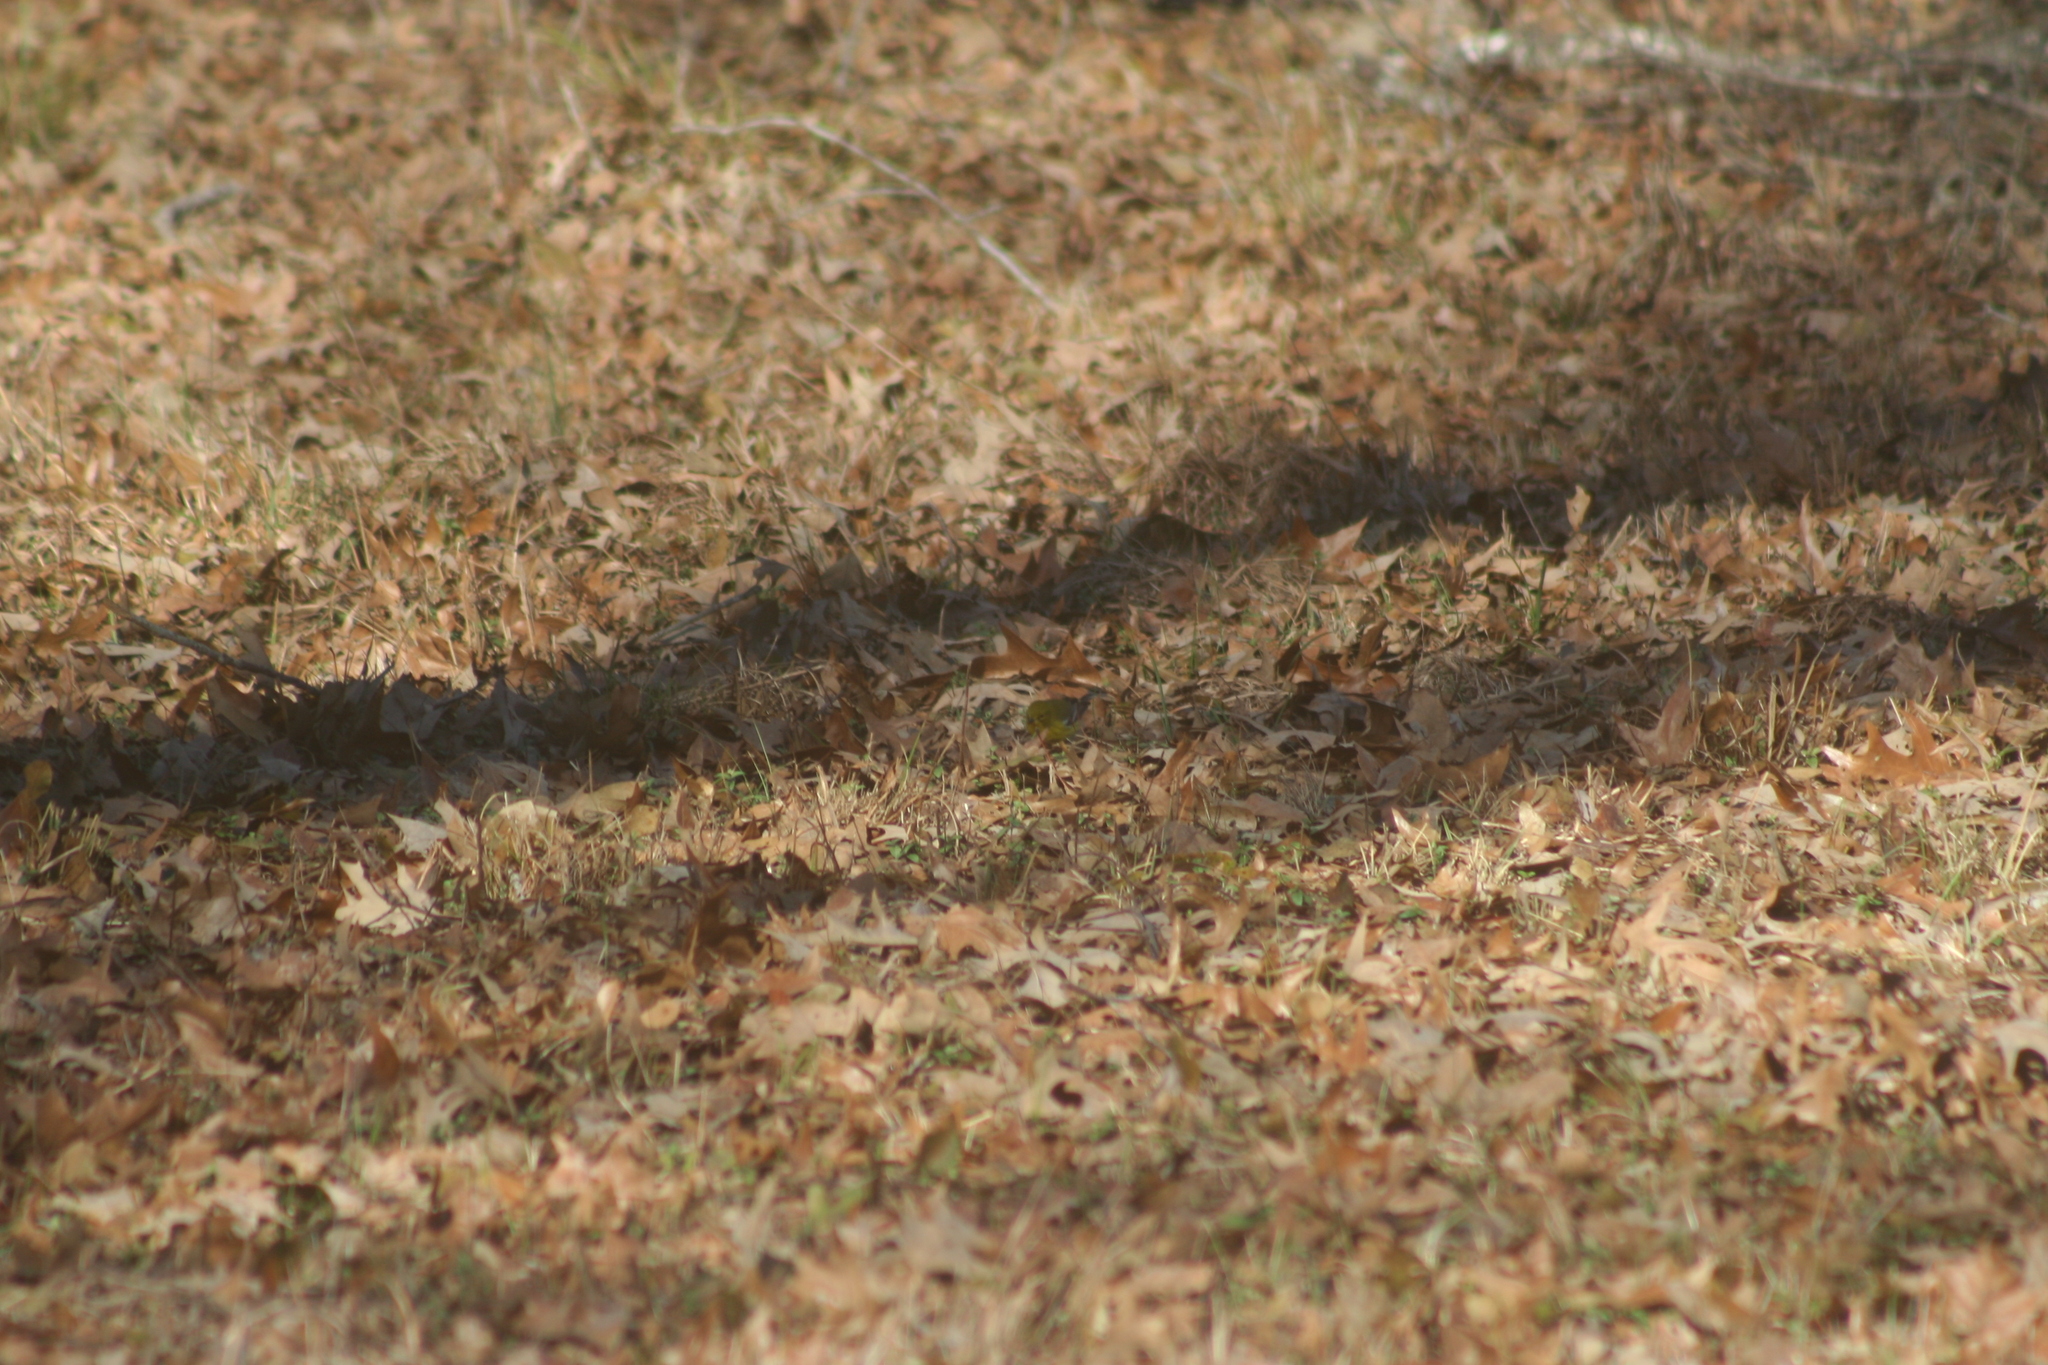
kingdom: Animalia
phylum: Chordata
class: Aves
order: Passeriformes
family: Parulidae
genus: Setophaga
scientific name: Setophaga pinus
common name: Pine warbler
